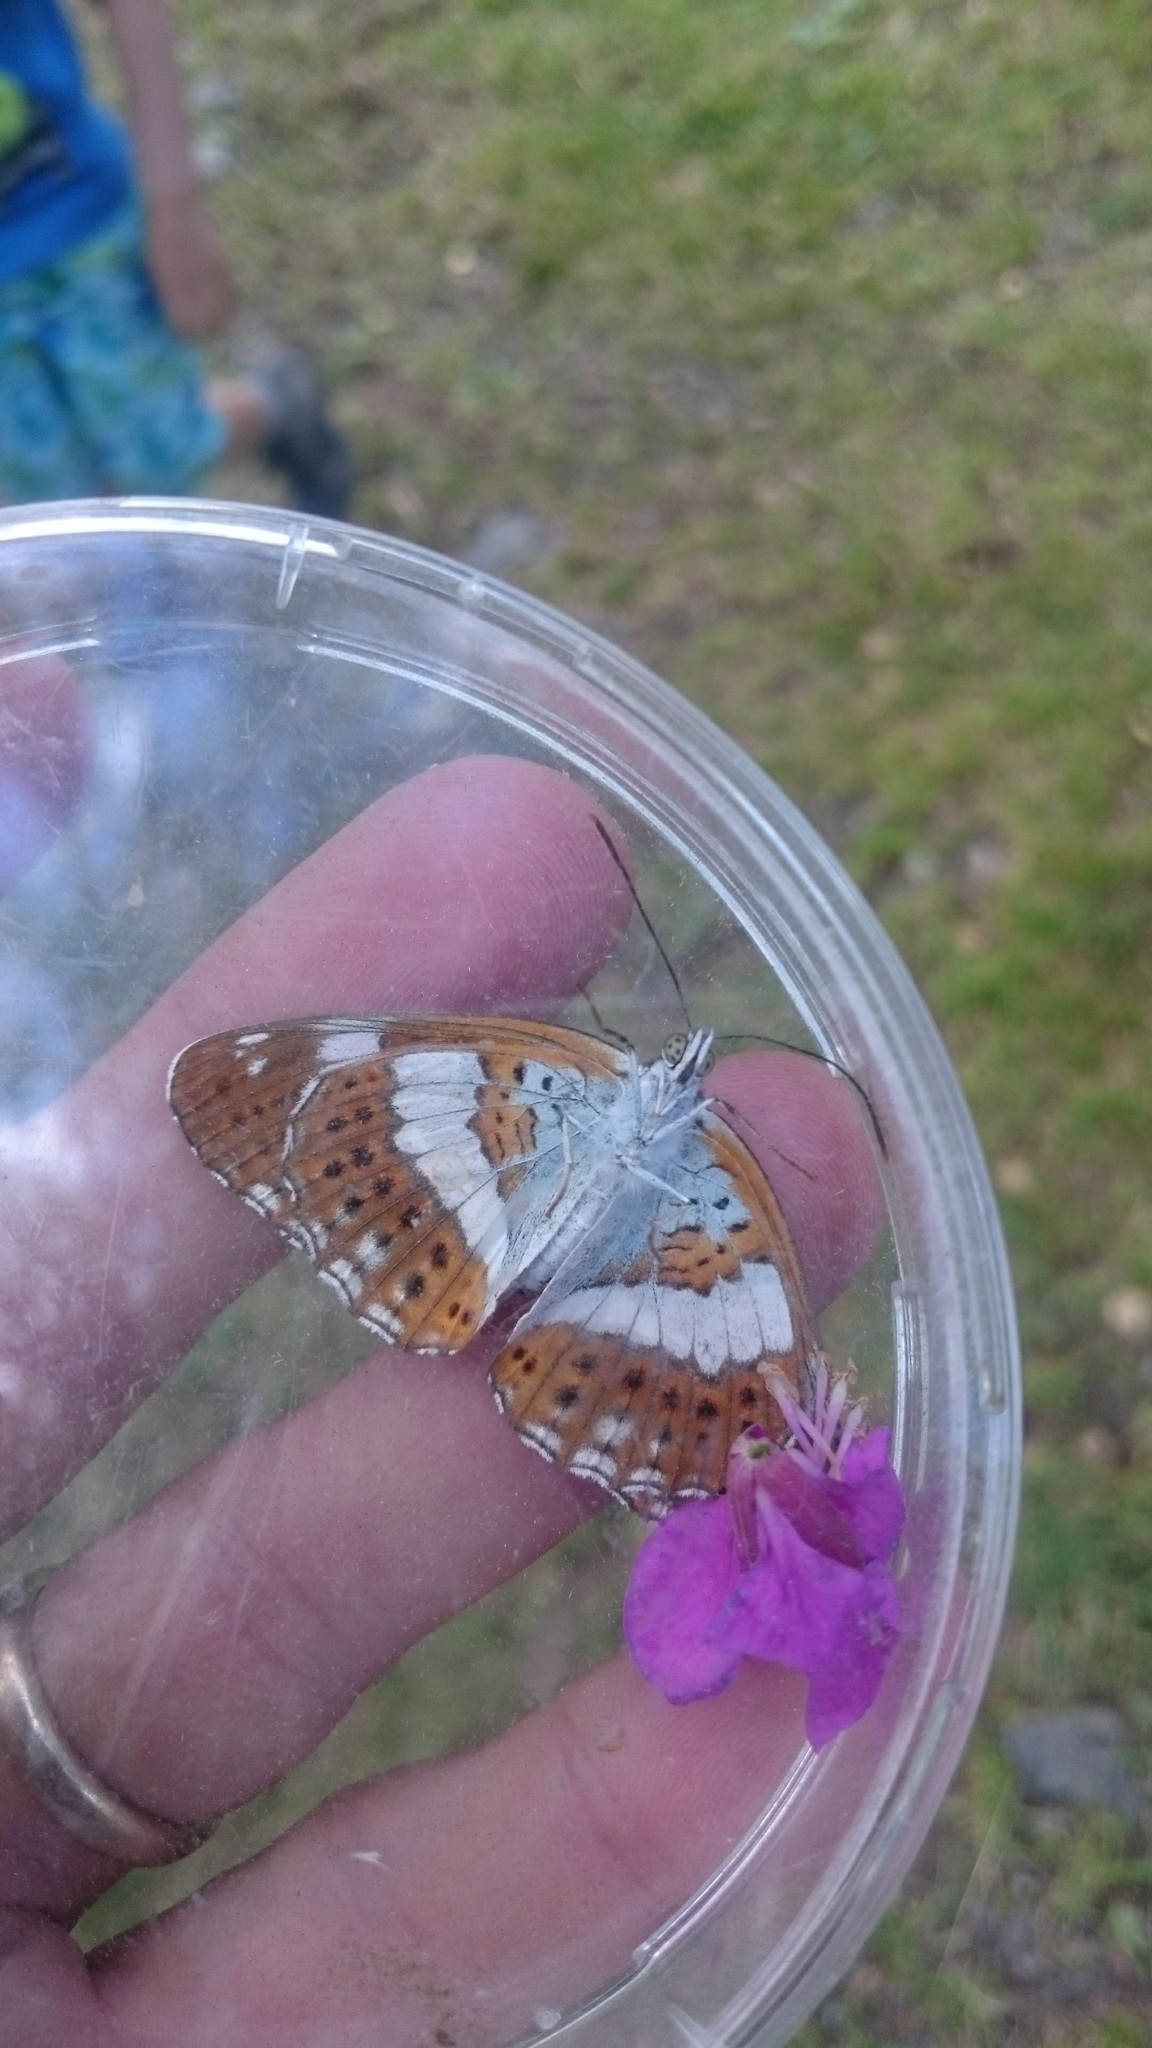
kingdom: Animalia
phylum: Arthropoda
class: Insecta
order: Lepidoptera
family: Nymphalidae
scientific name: Nymphalidae
